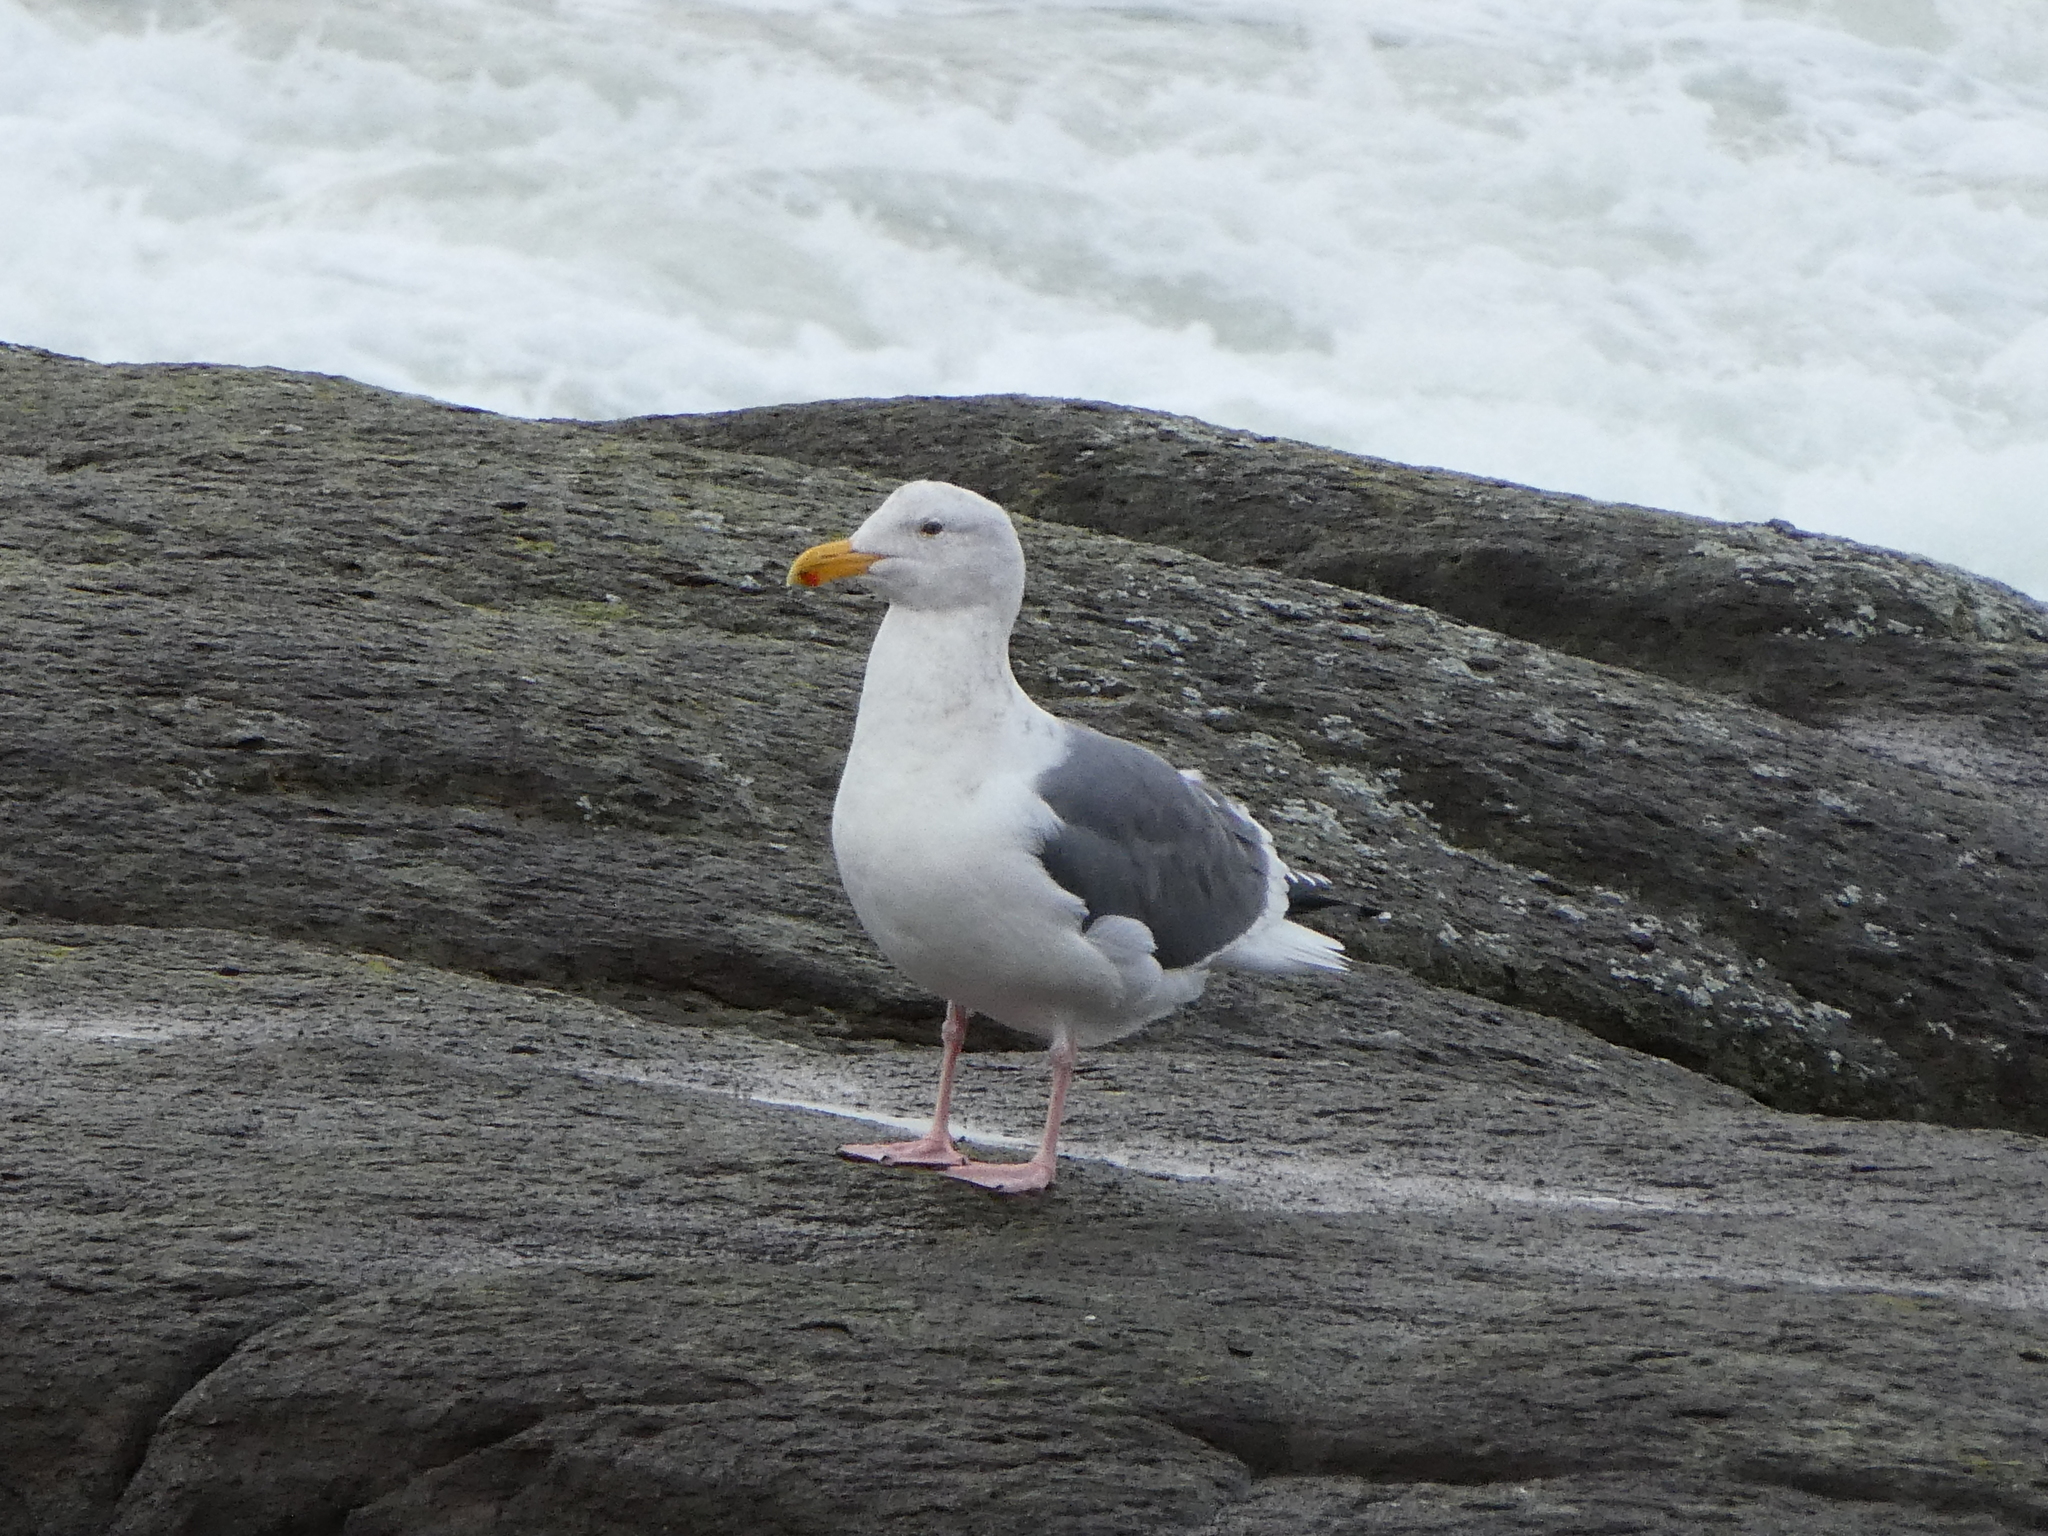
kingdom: Animalia
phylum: Chordata
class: Aves
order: Charadriiformes
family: Laridae
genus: Larus
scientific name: Larus occidentalis
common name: Western gull
